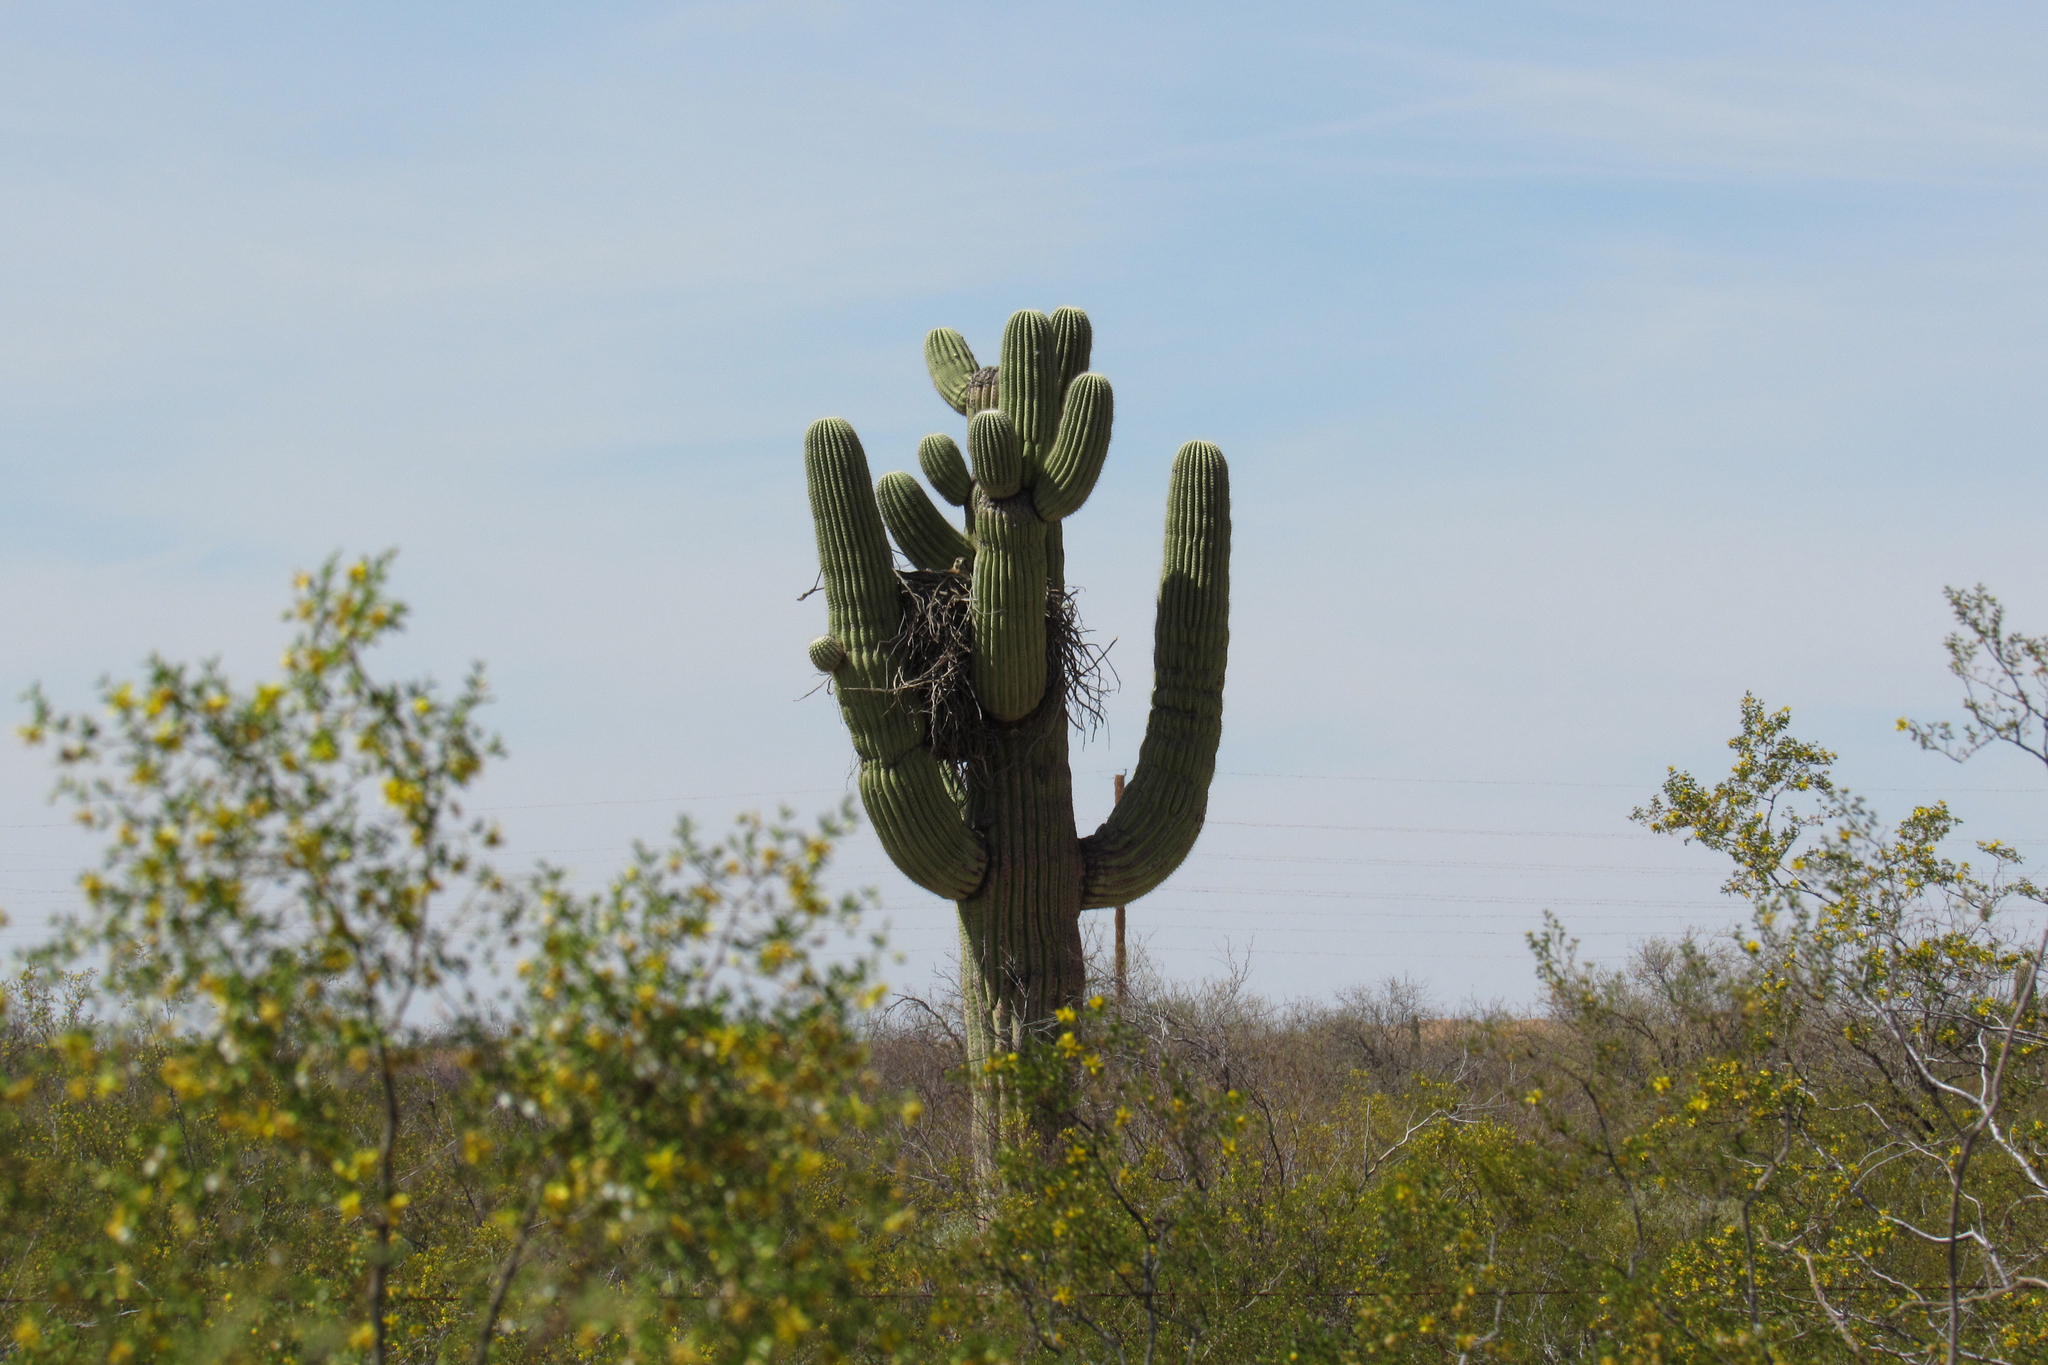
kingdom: Animalia
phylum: Chordata
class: Aves
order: Accipitriformes
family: Accipitridae
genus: Buteo
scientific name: Buteo jamaicensis
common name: Red-tailed hawk
